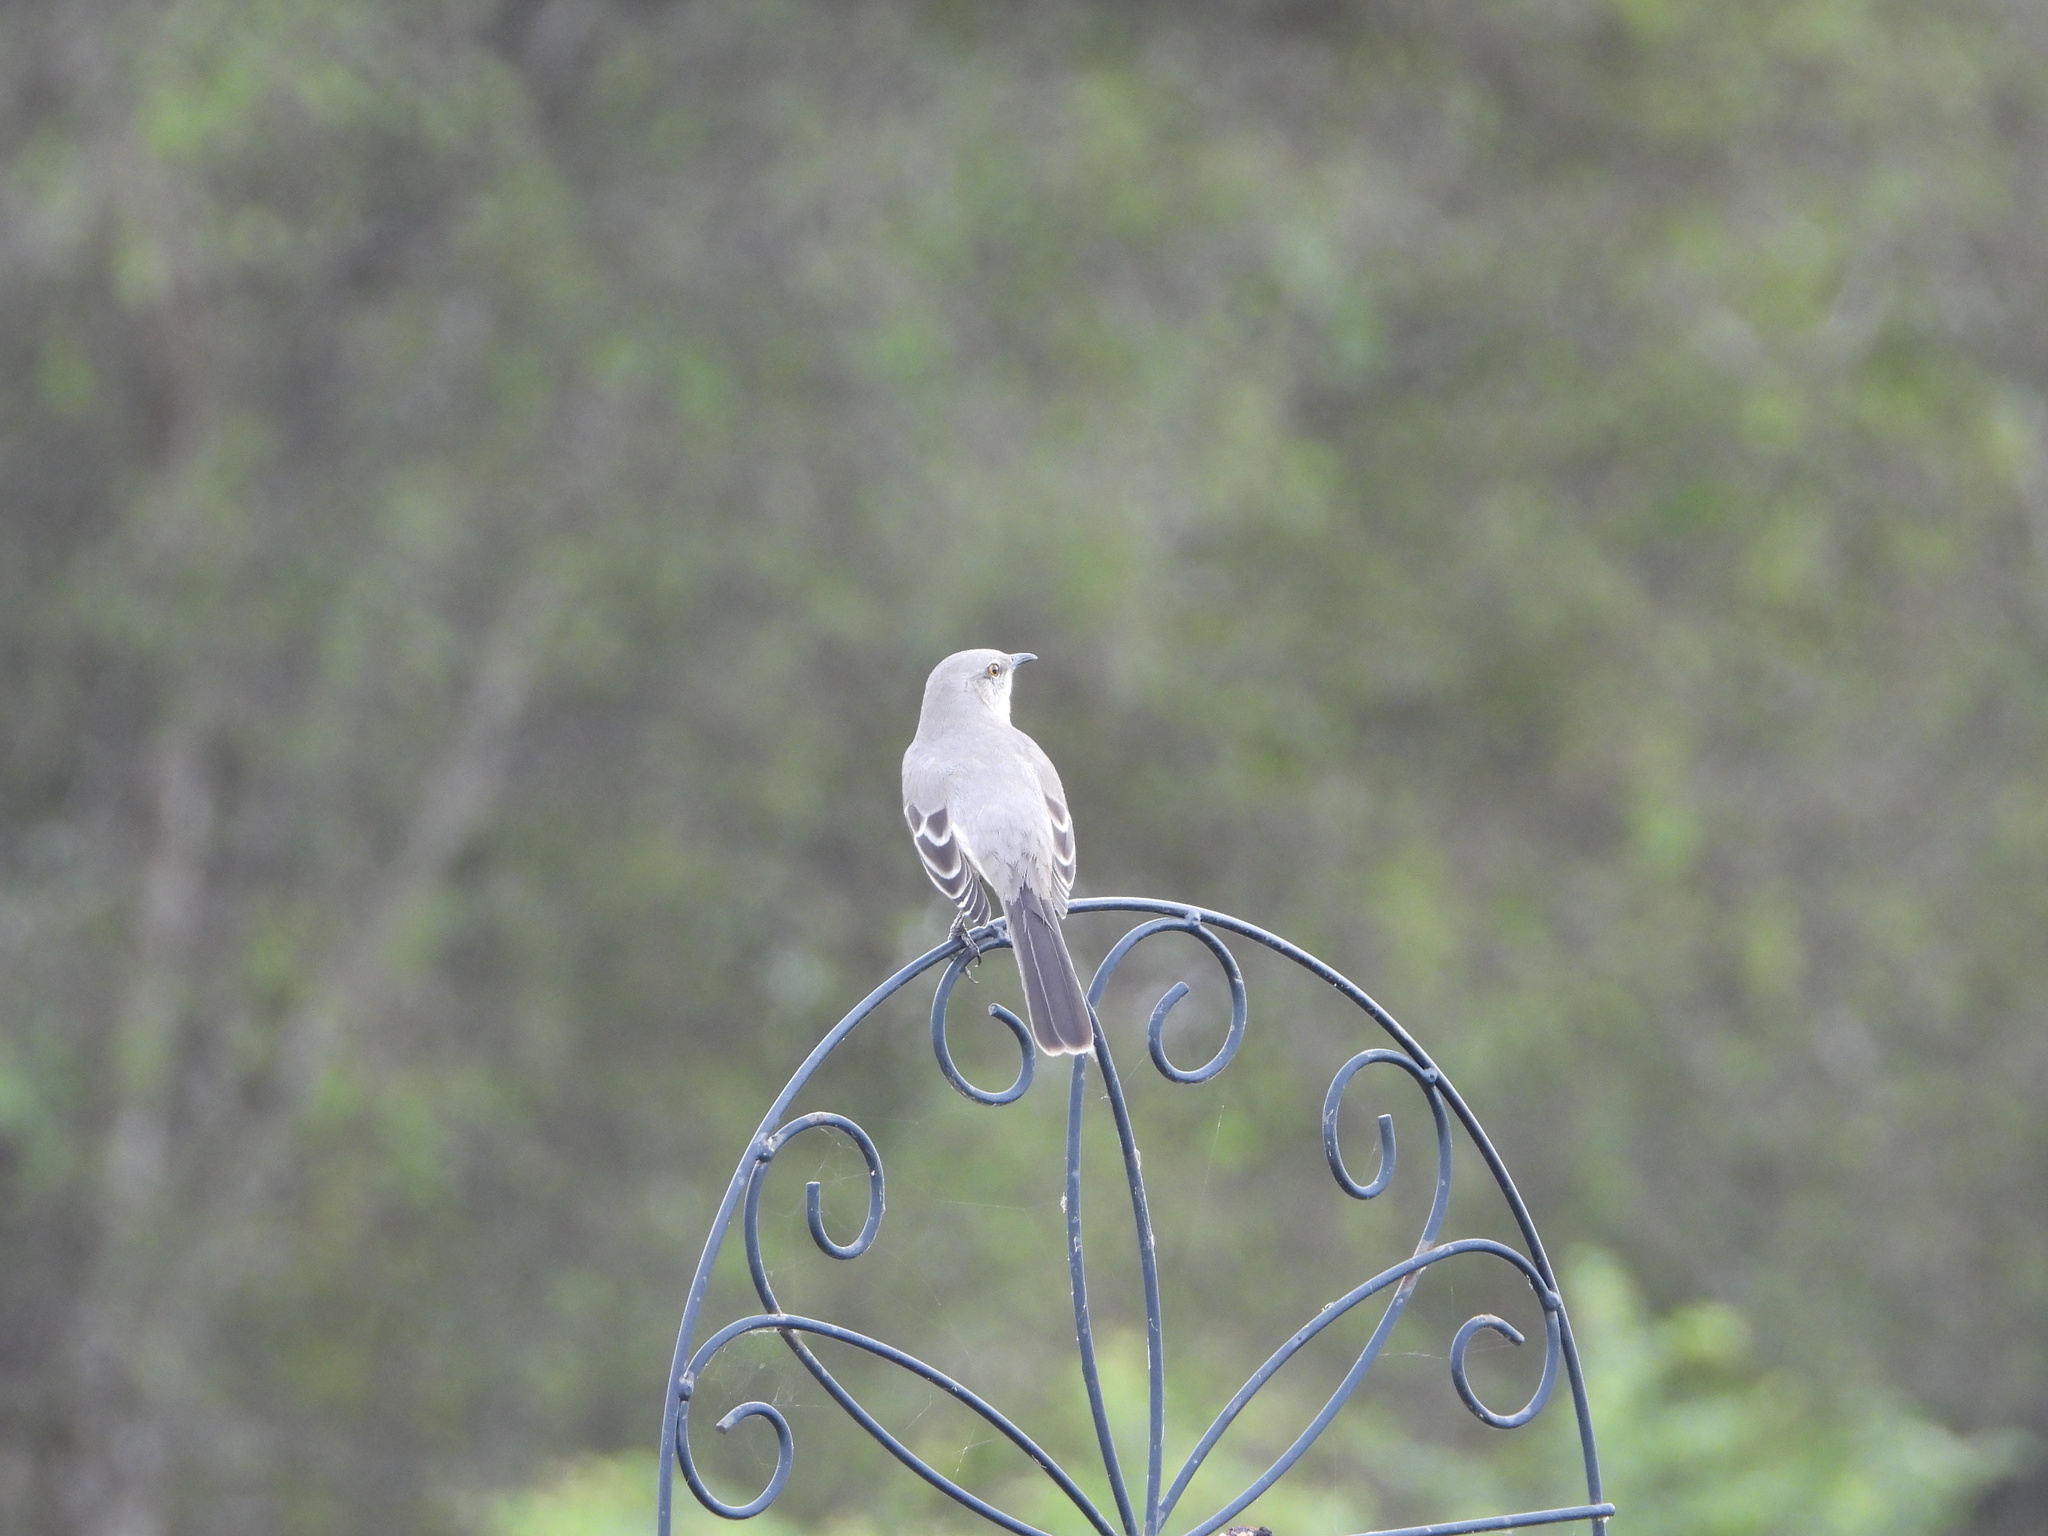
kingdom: Animalia
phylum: Chordata
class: Aves
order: Passeriformes
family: Mimidae
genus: Mimus
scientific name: Mimus polyglottos
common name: Northern mockingbird
